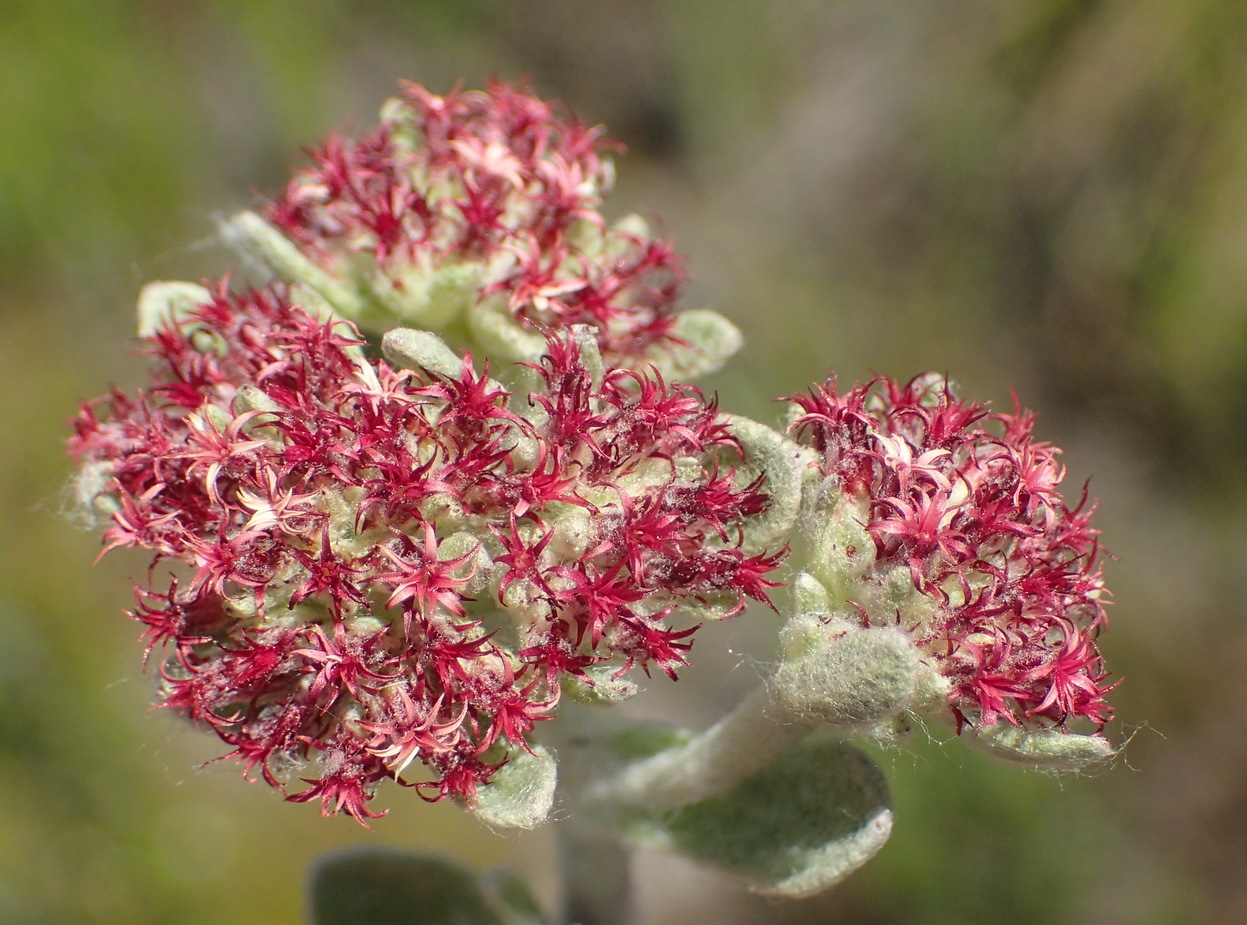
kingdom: Plantae
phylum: Tracheophyta
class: Magnoliopsida
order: Asterales
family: Asteraceae
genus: Helichrysum
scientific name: Helichrysum spiralepis
